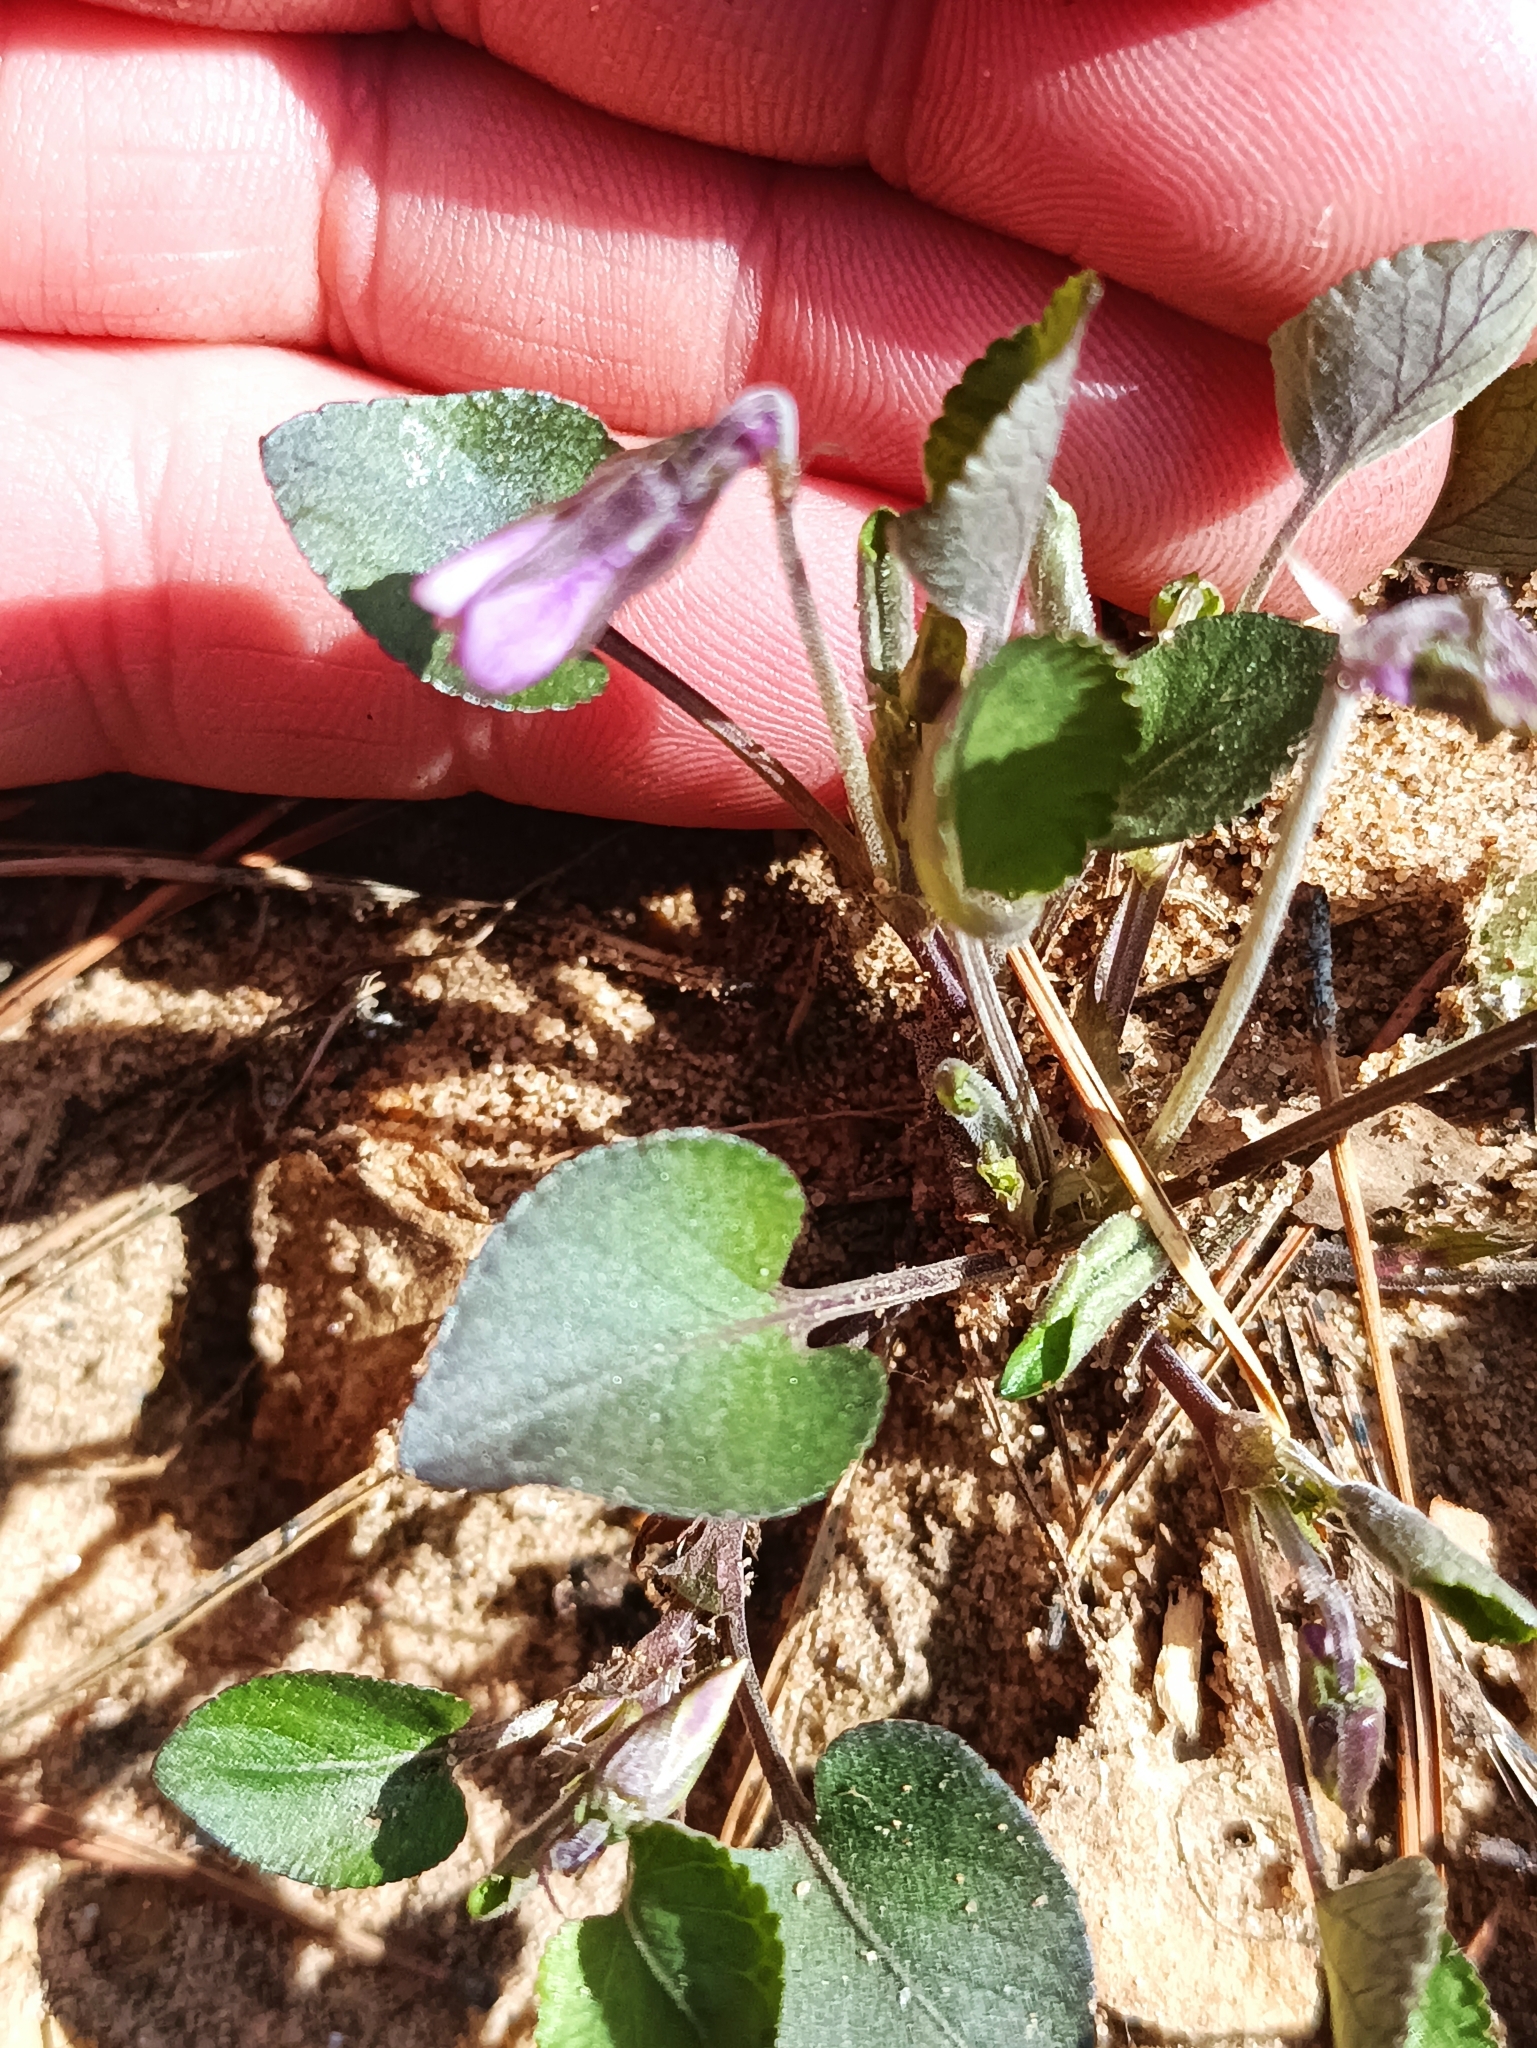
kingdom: Plantae
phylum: Tracheophyta
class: Magnoliopsida
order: Malpighiales
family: Violaceae
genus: Viola
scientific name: Viola rupestris
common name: Teesdale violet
